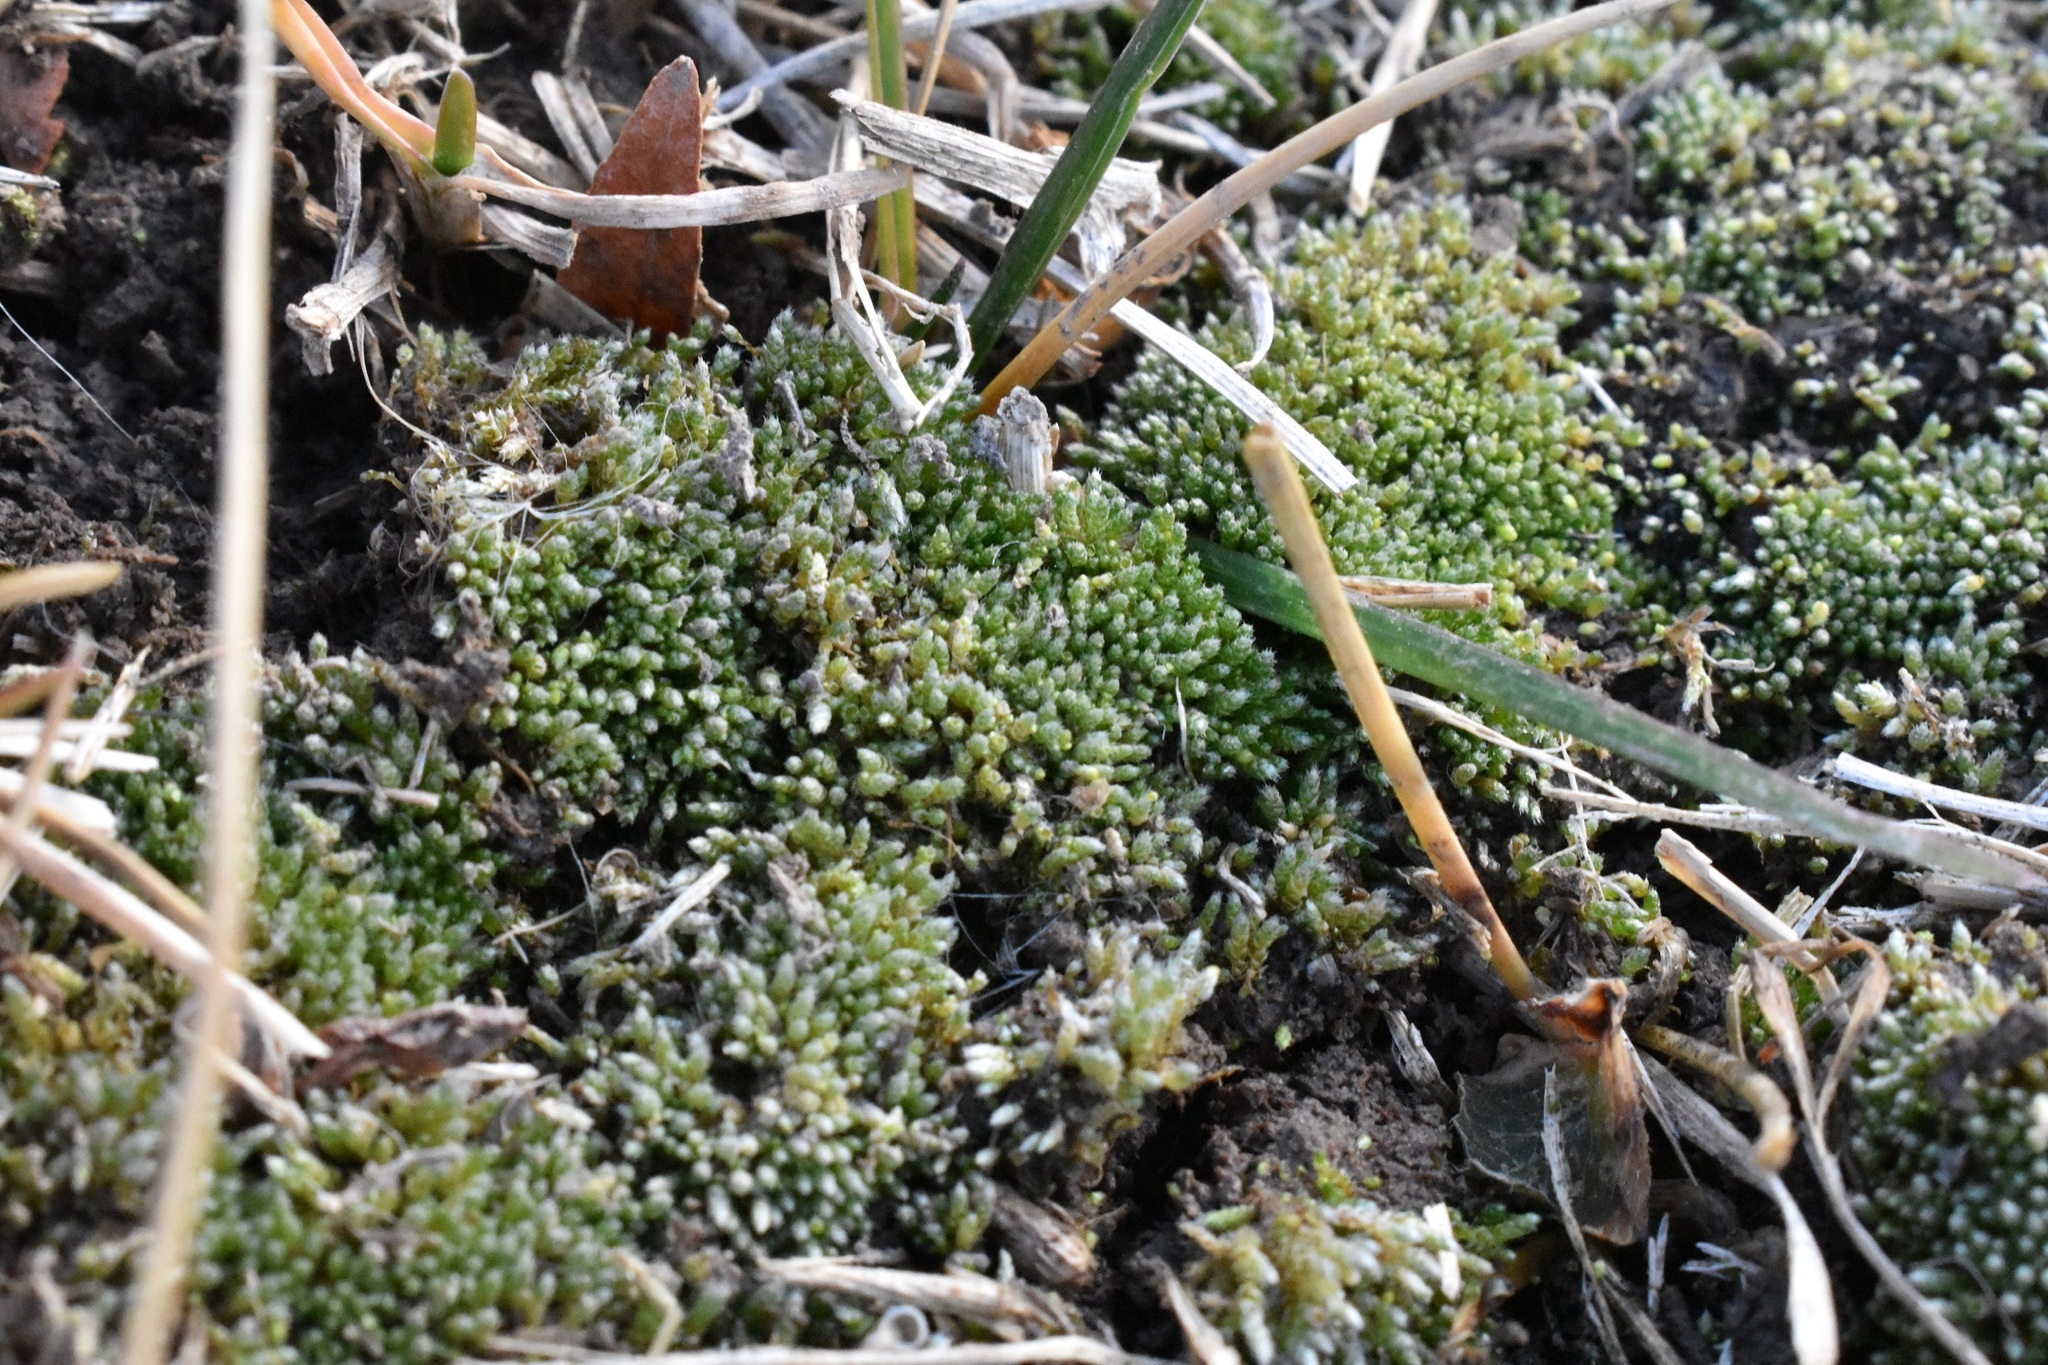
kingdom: Plantae
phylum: Bryophyta
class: Bryopsida
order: Bryales
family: Bryaceae
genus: Bryum
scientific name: Bryum argenteum
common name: Silver-moss
